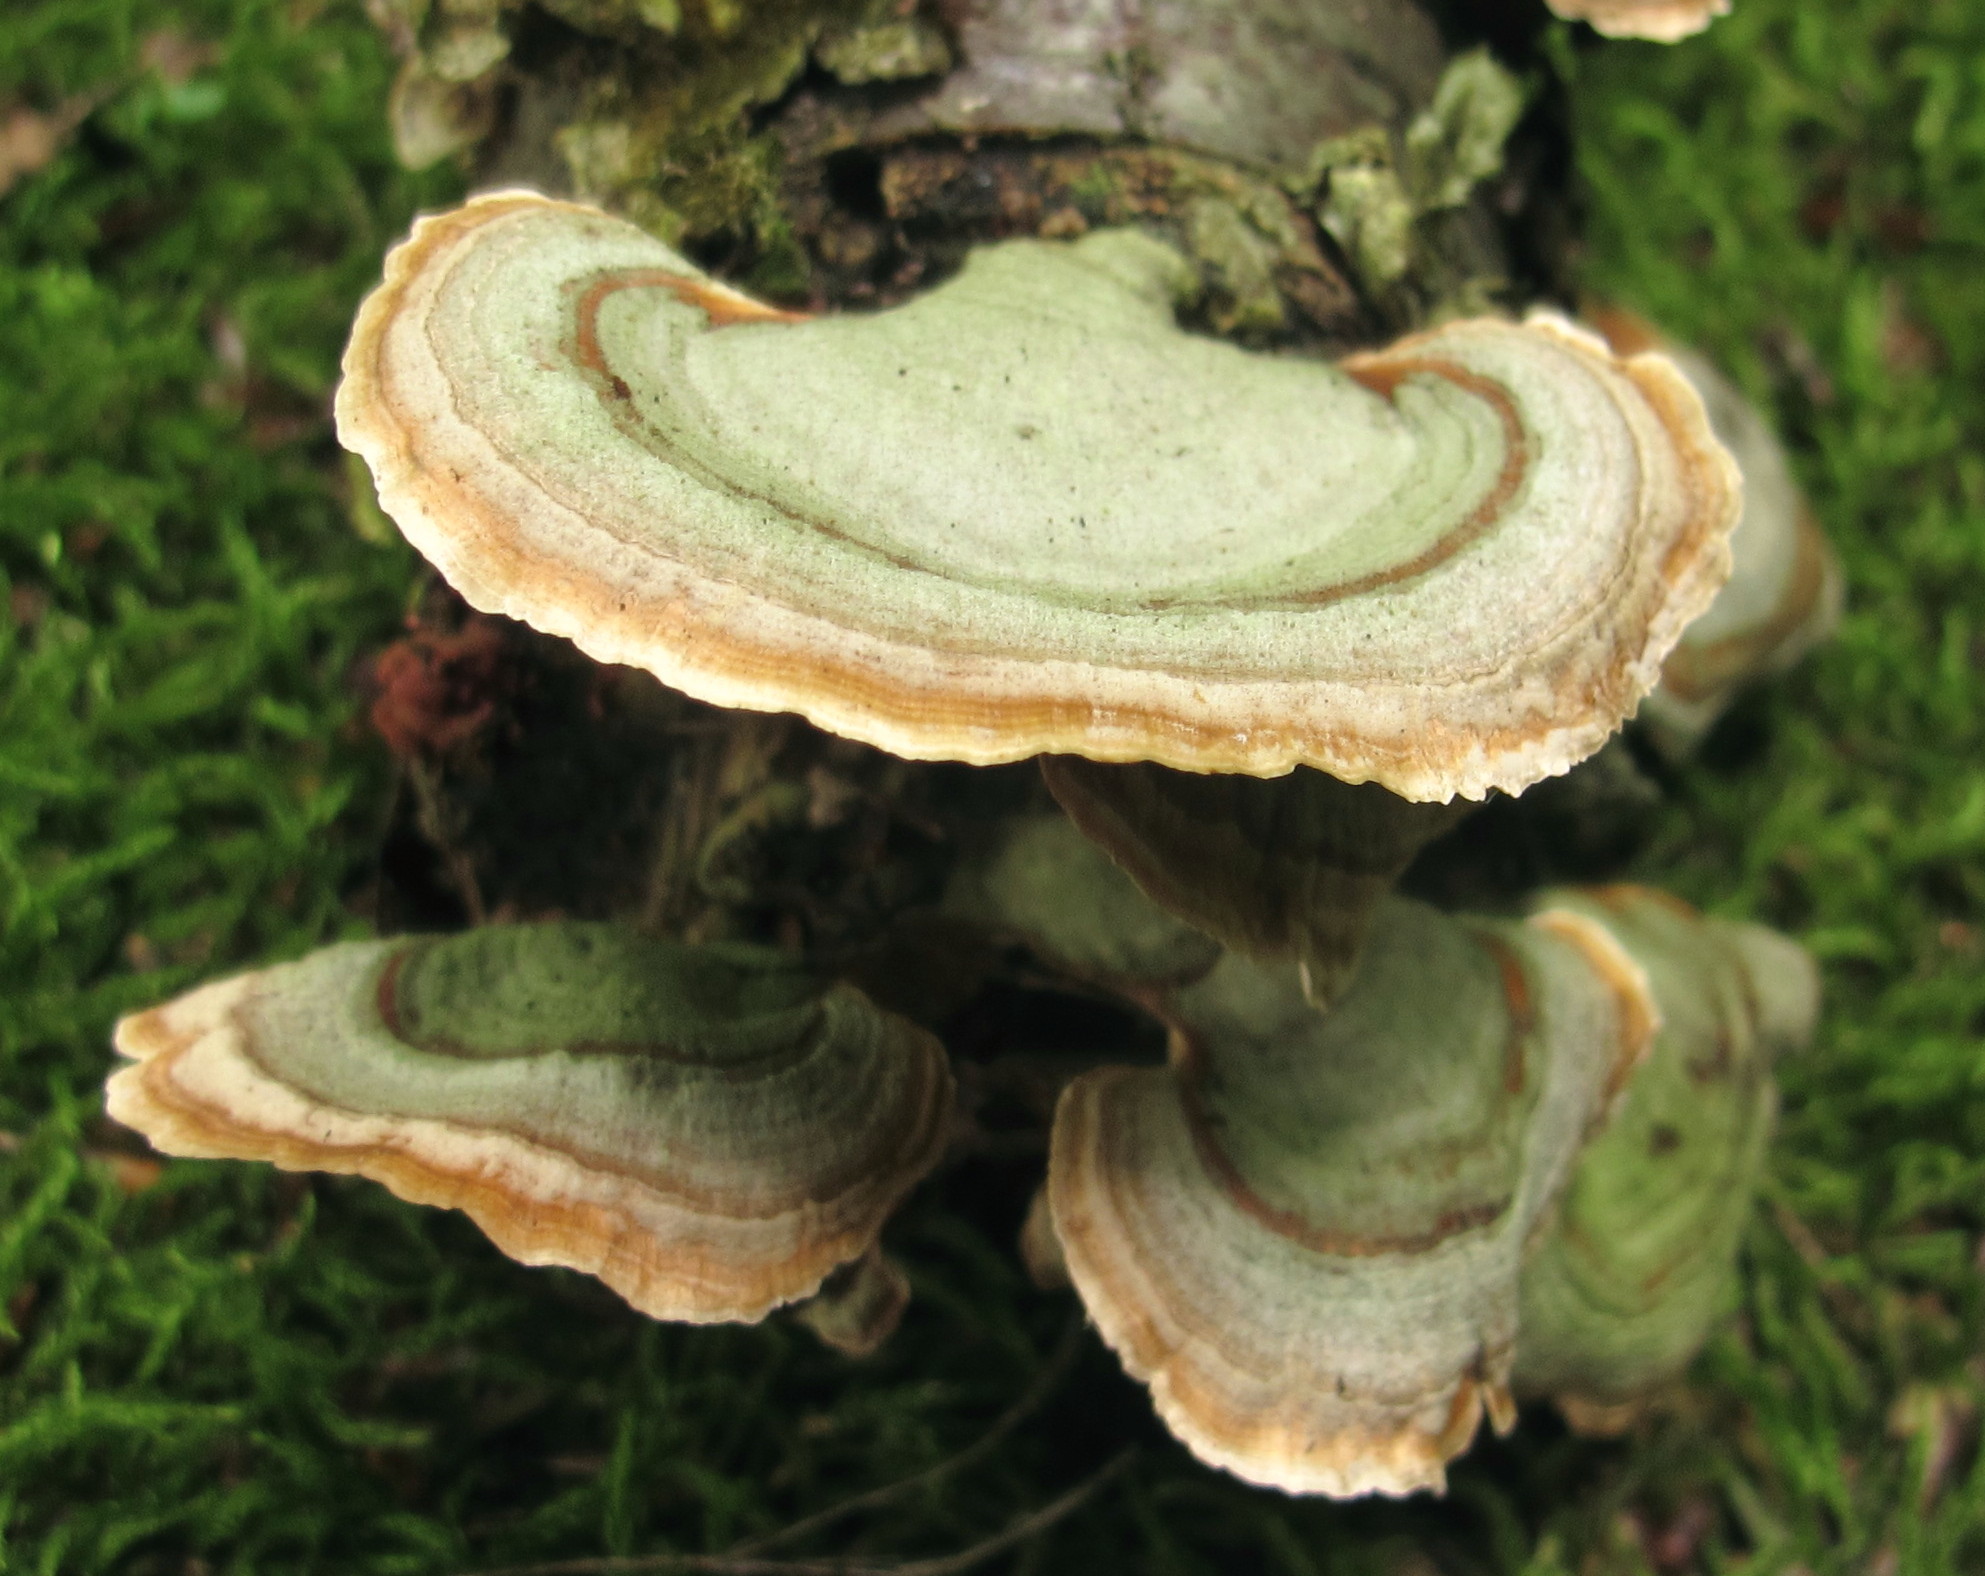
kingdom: Fungi
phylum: Basidiomycota
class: Agaricomycetes
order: Russulales
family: Stereaceae
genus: Stereum
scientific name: Stereum ostrea
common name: False turkeytail
